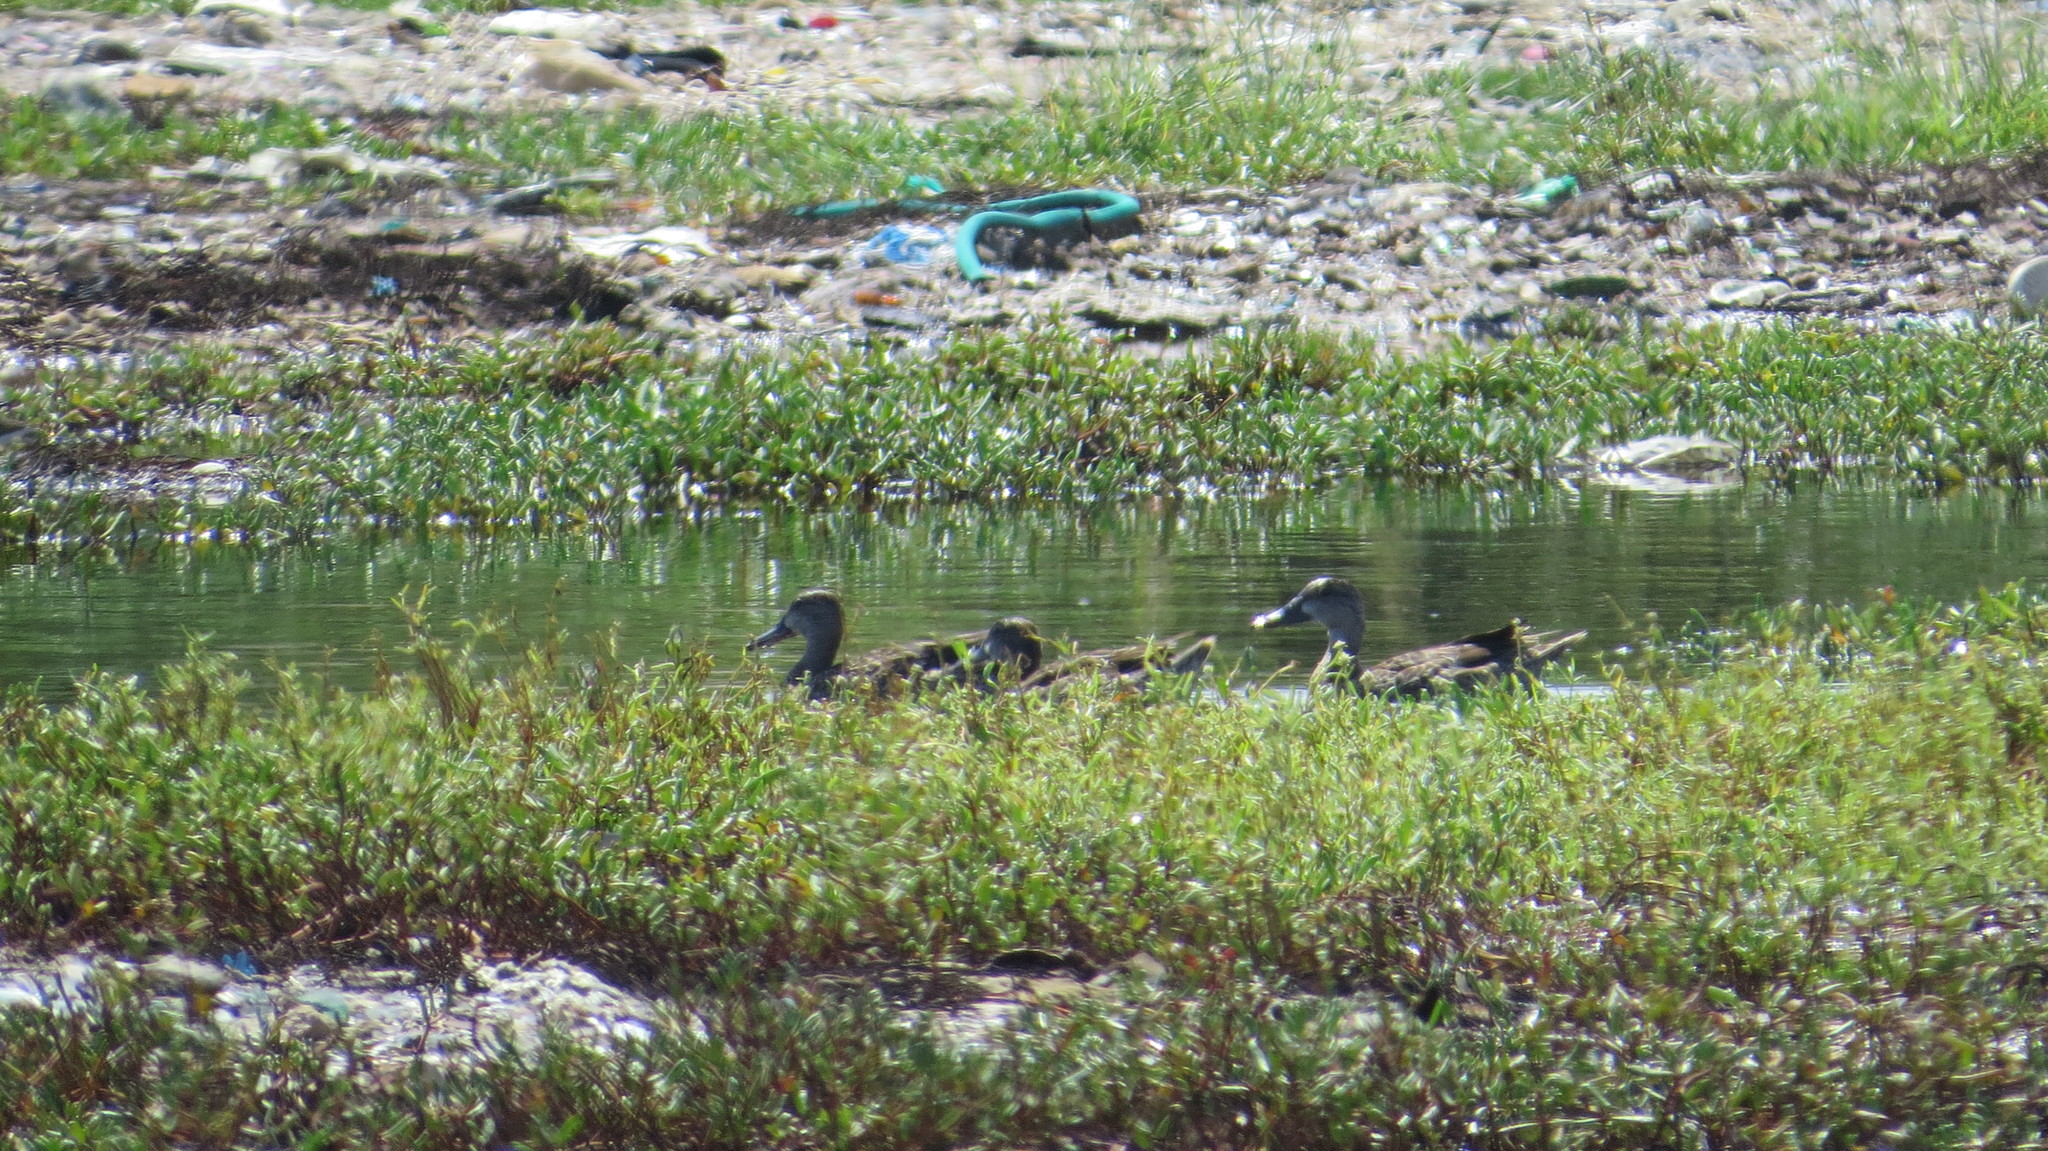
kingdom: Animalia
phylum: Chordata
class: Aves
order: Anseriformes
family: Anatidae
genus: Spatula
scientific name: Spatula discors
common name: Blue-winged teal
